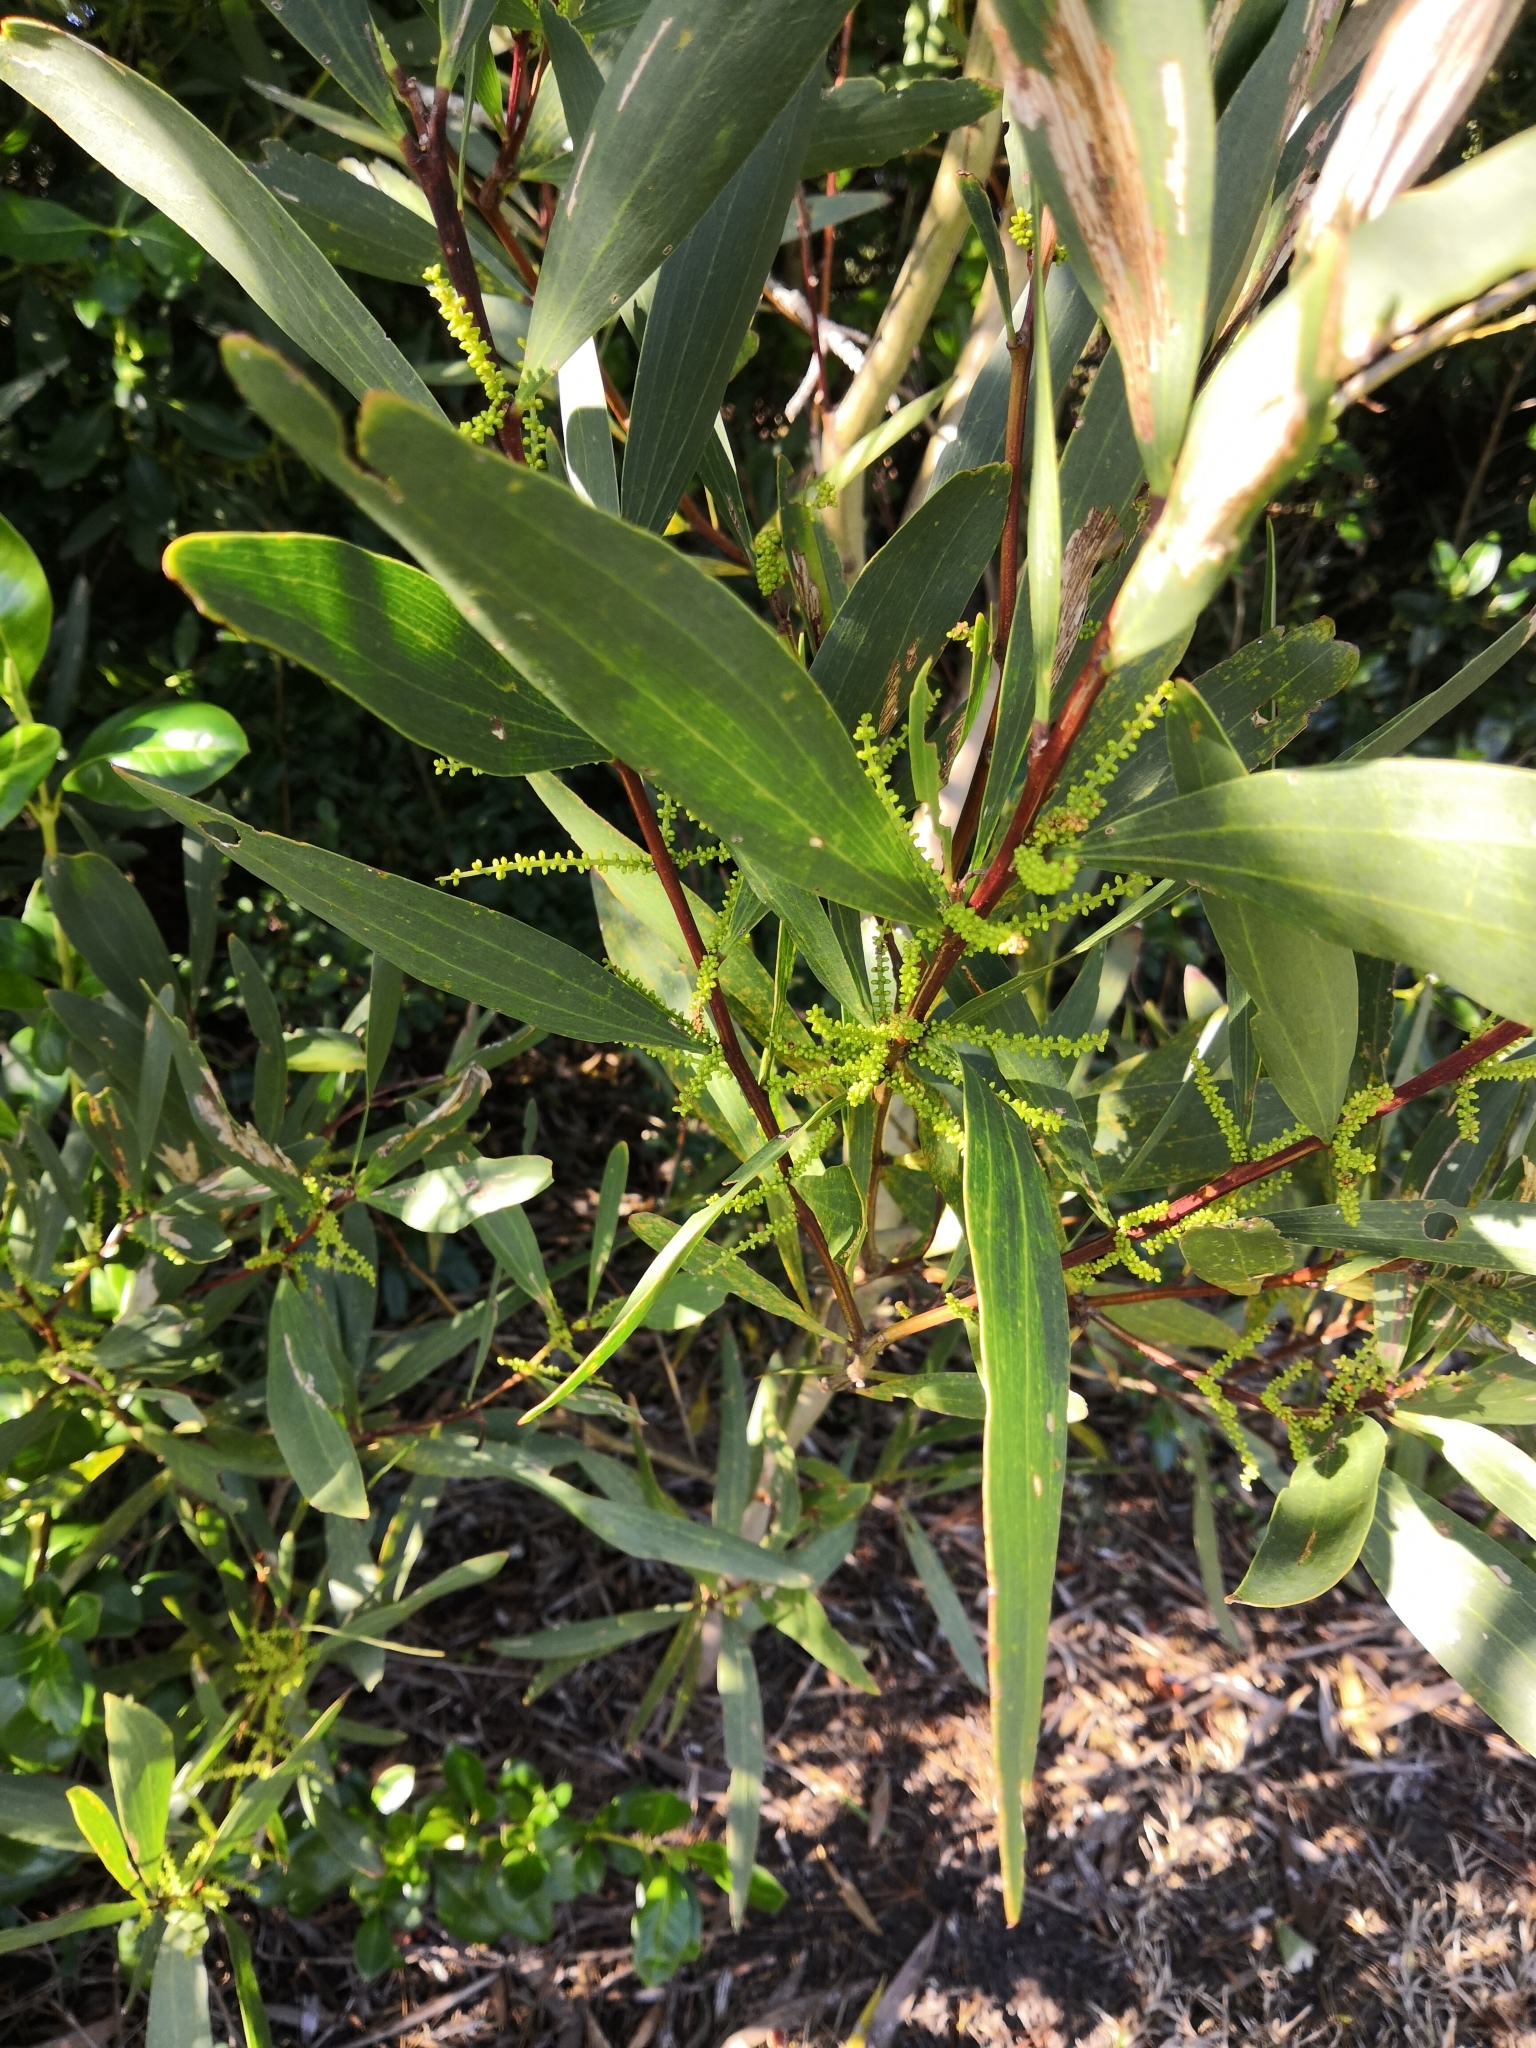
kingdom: Plantae
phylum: Tracheophyta
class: Magnoliopsida
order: Fabales
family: Fabaceae
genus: Acacia
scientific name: Acacia longifolia
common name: Sydney golden wattle
